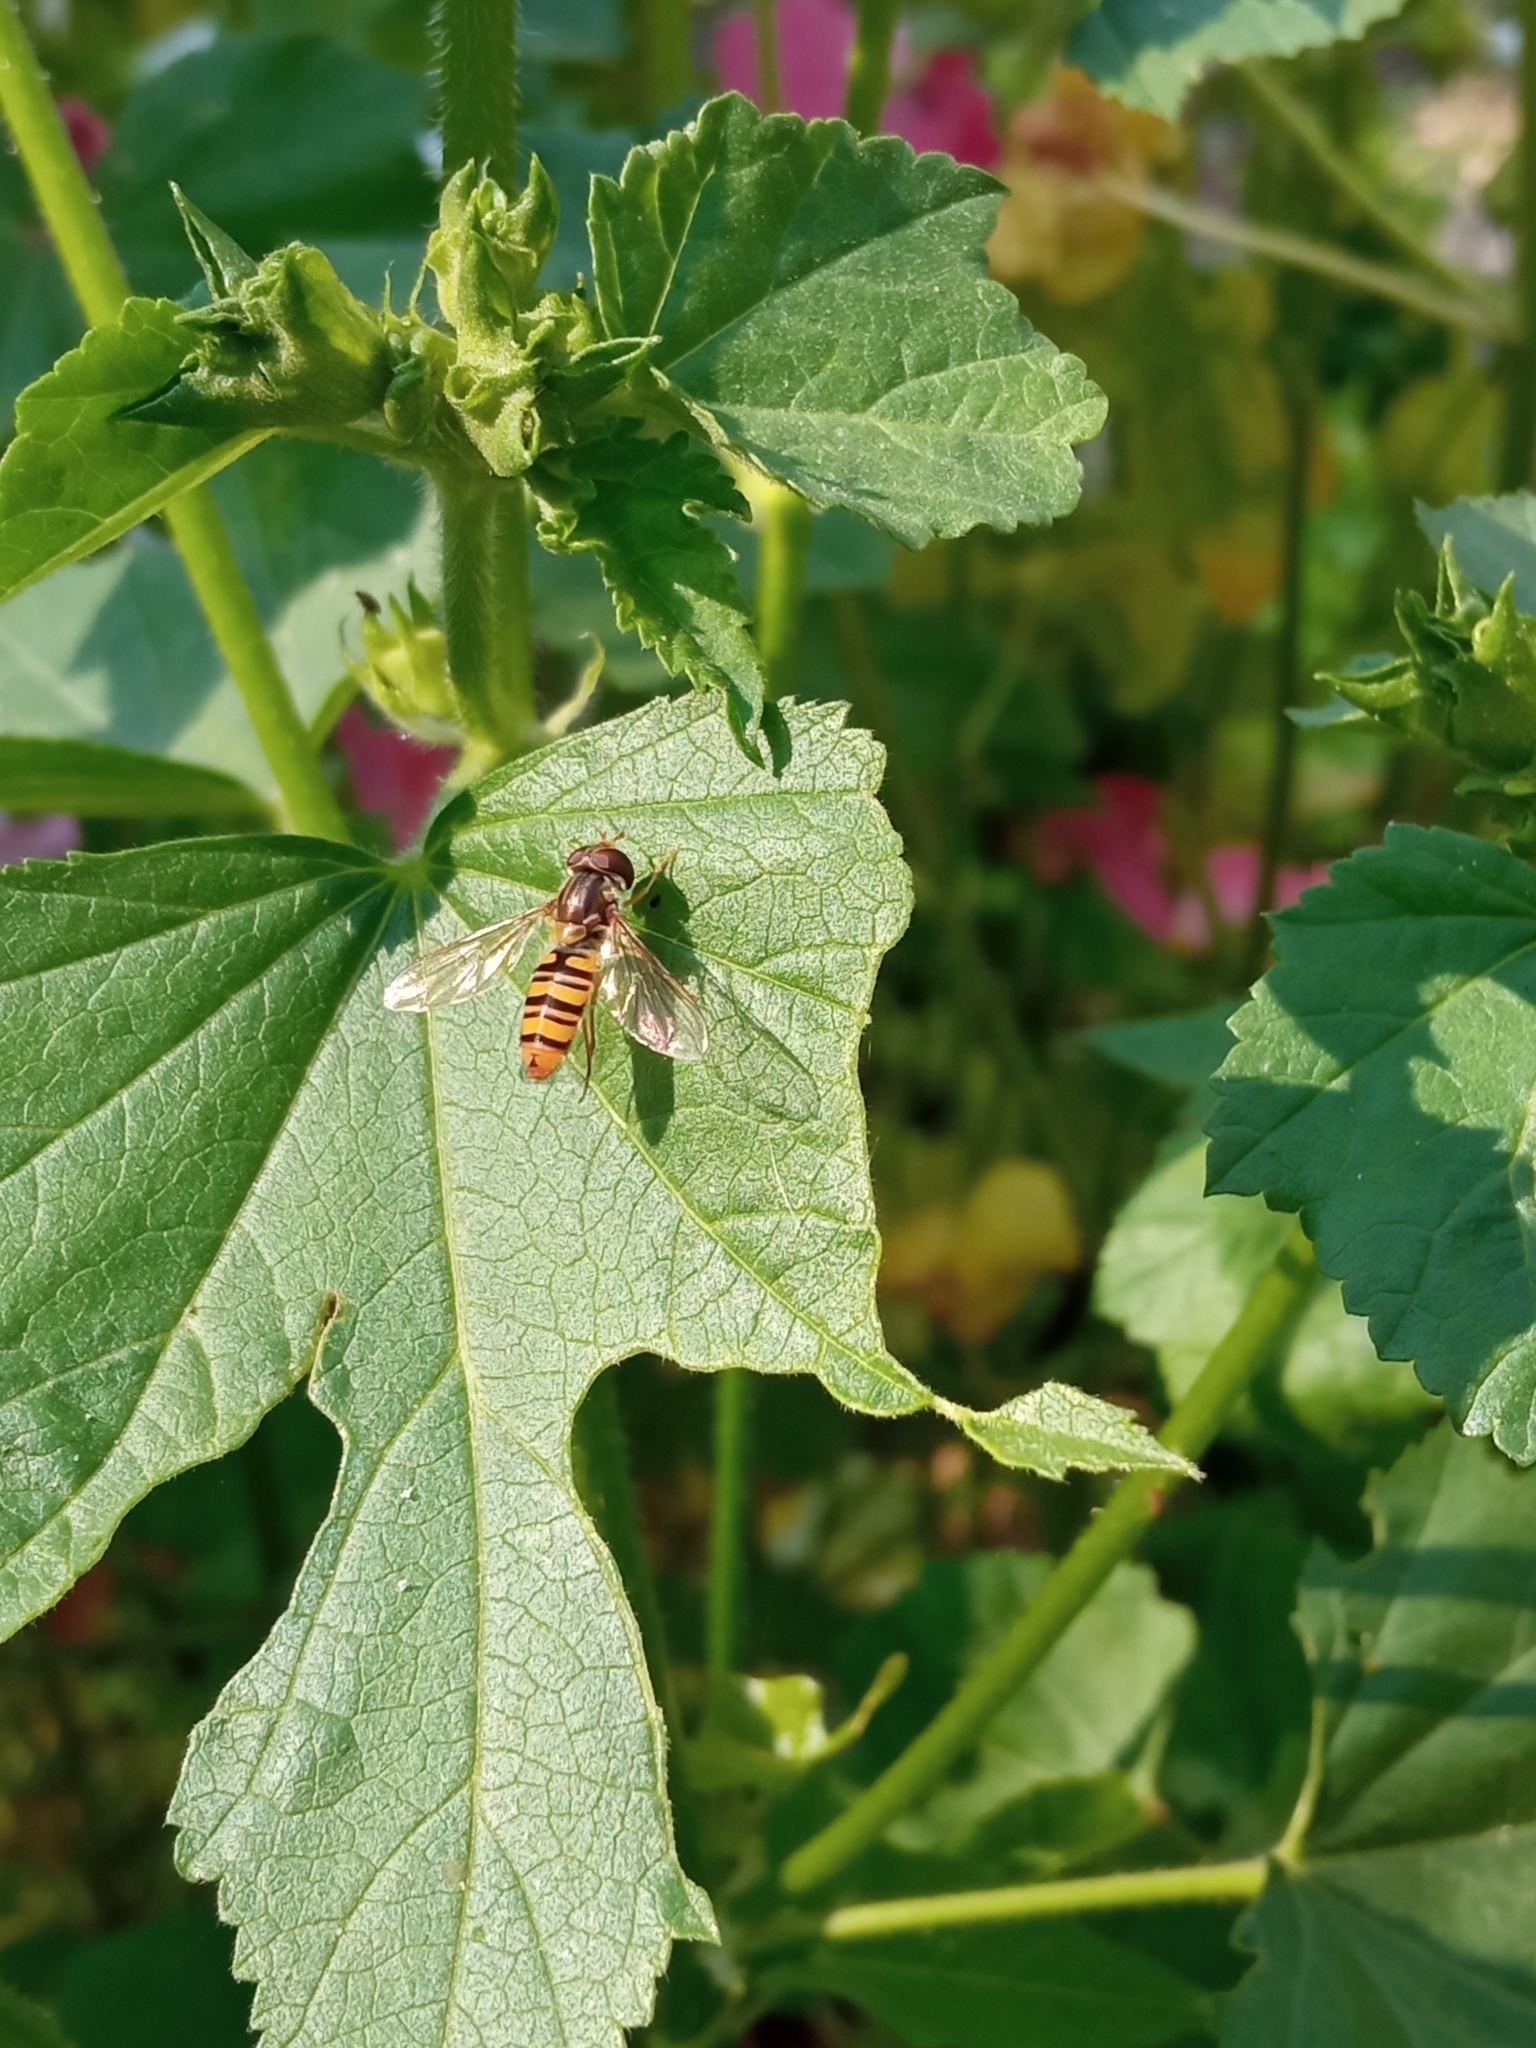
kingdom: Animalia
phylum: Arthropoda
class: Insecta
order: Diptera
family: Syrphidae
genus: Episyrphus
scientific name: Episyrphus balteatus
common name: Marmalade hoverfly
